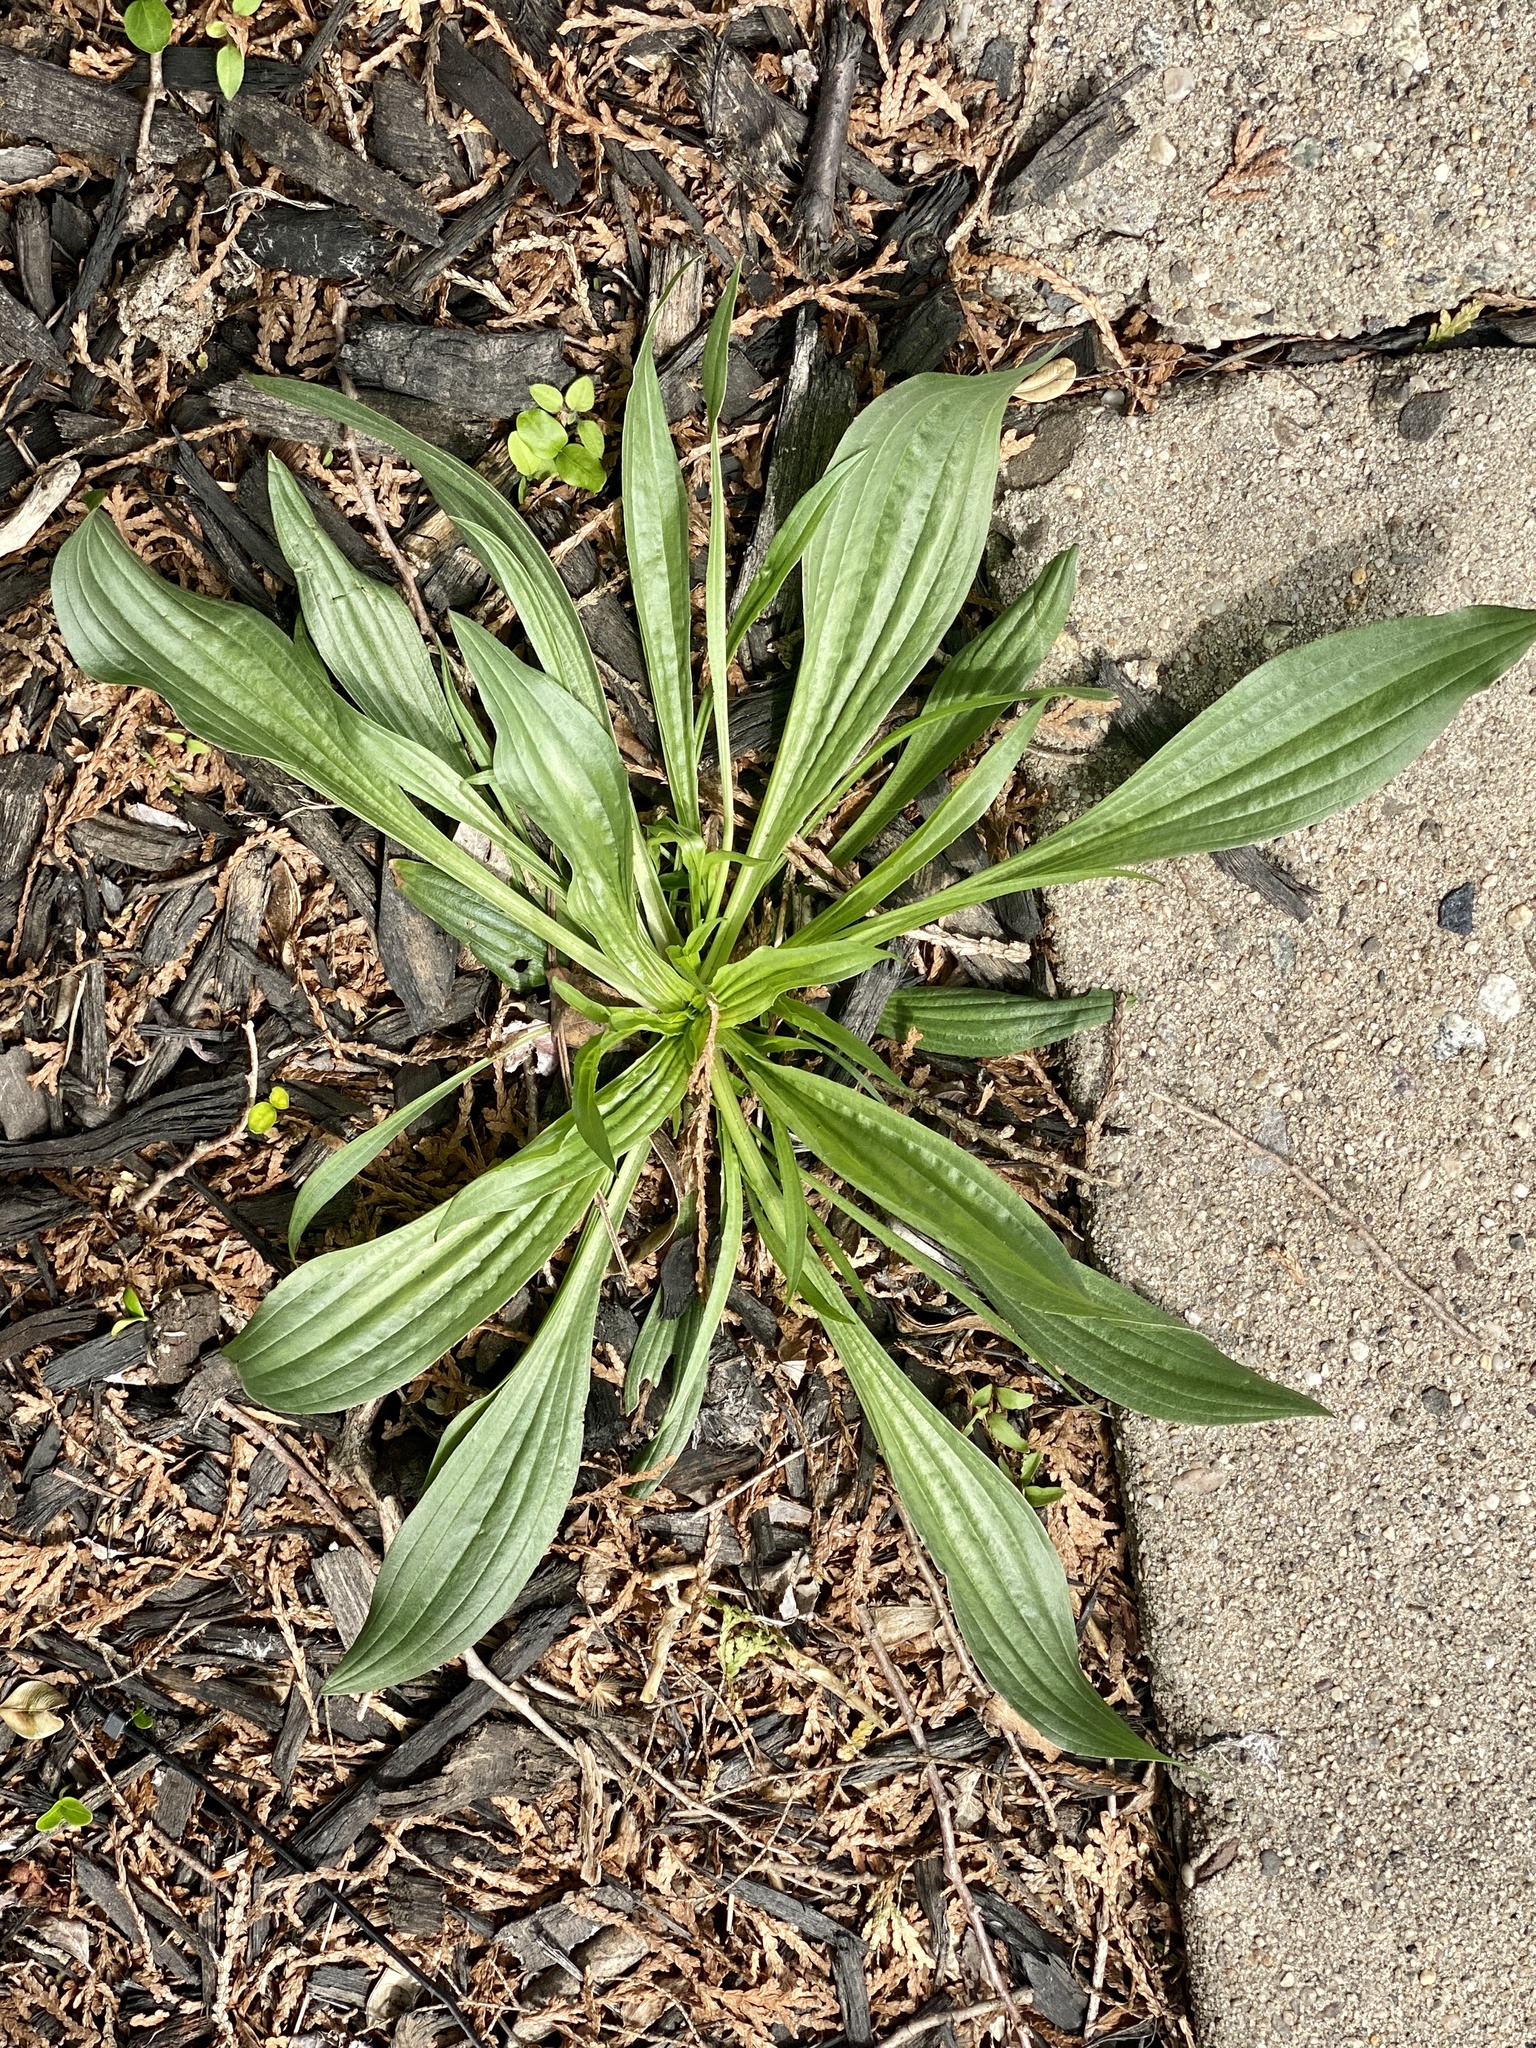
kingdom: Plantae
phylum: Tracheophyta
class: Magnoliopsida
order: Lamiales
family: Plantaginaceae
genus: Plantago
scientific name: Plantago lanceolata
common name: Ribwort plantain
